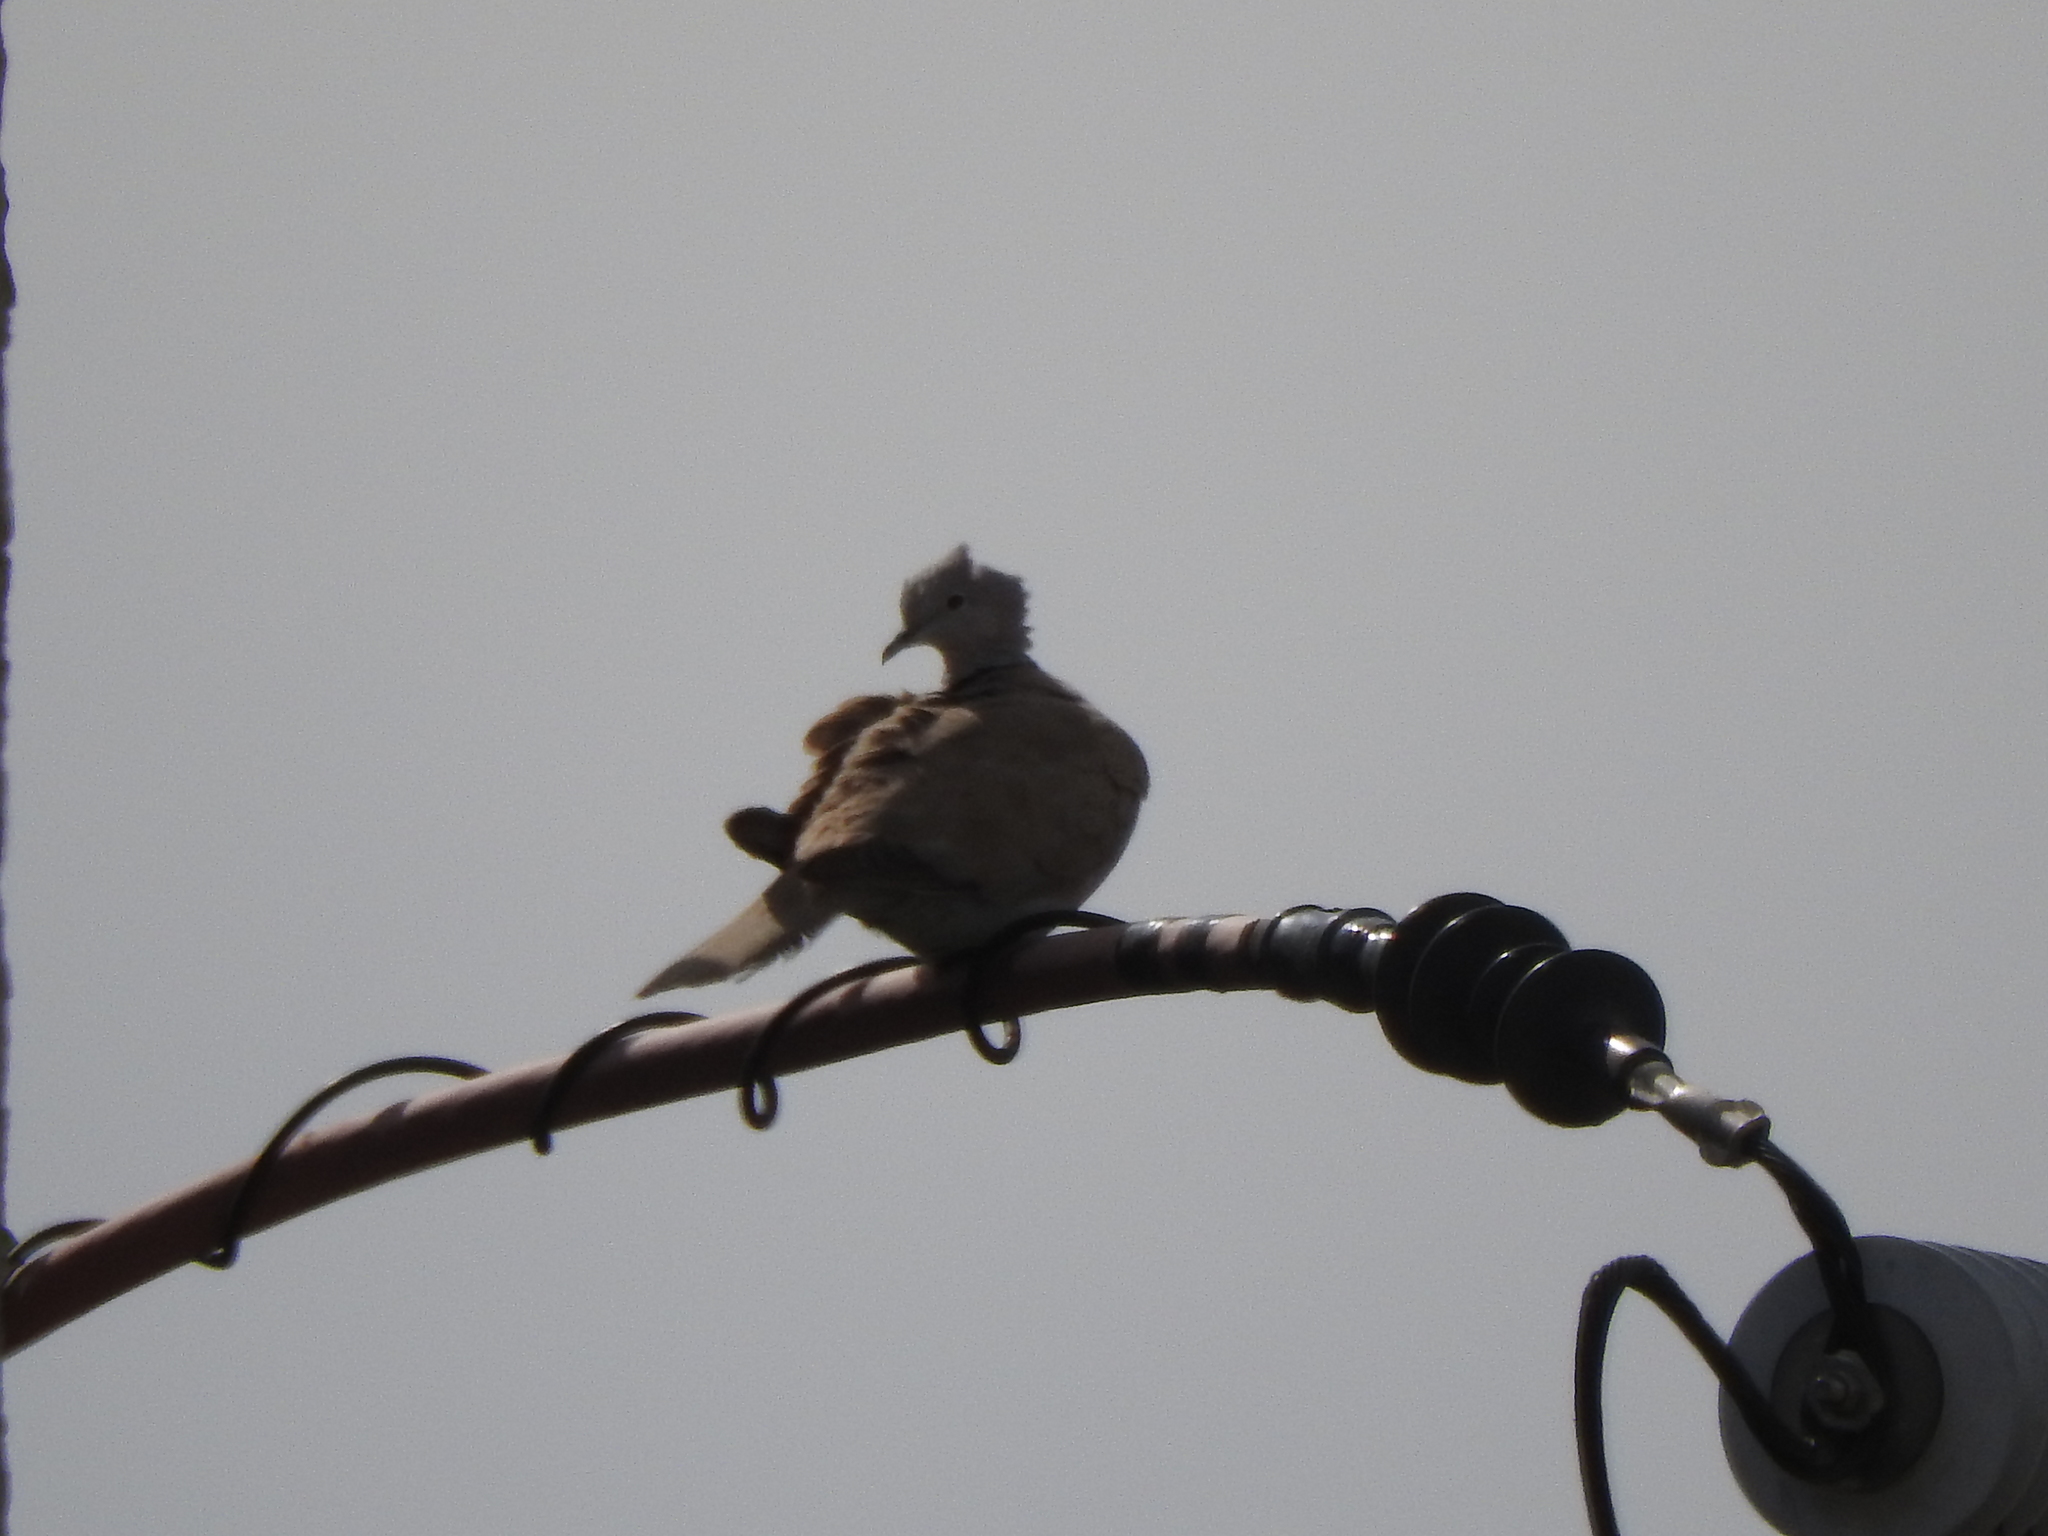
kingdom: Animalia
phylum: Chordata
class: Aves
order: Columbiformes
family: Columbidae
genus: Streptopelia
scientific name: Streptopelia decaocto
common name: Eurasian collared dove
